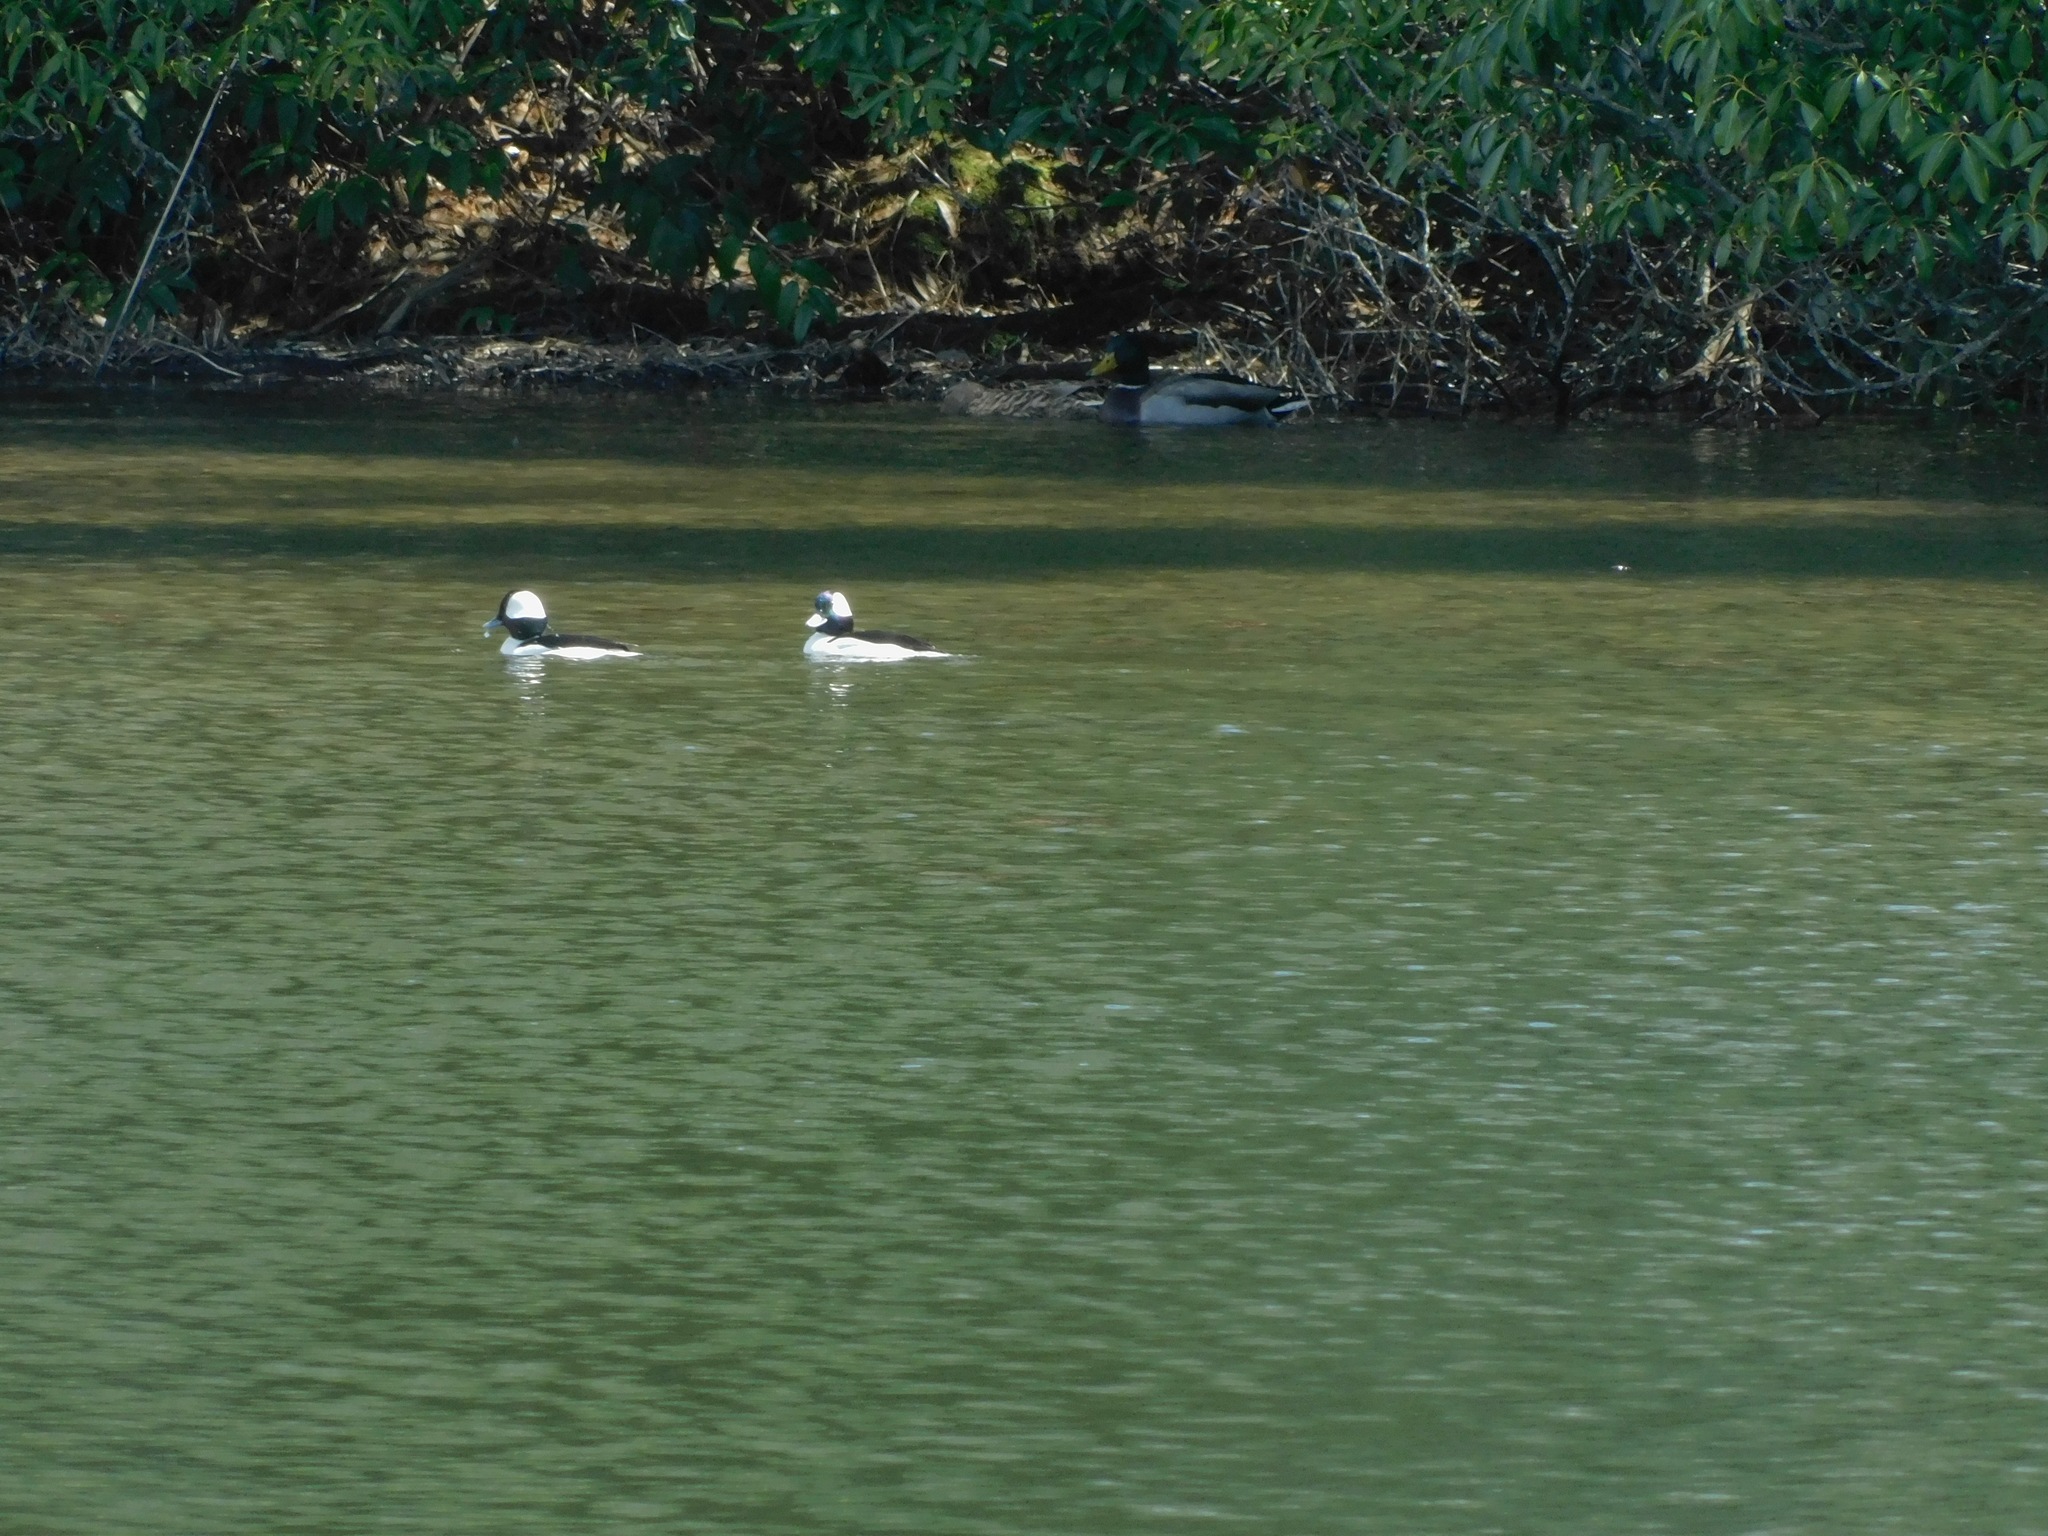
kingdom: Animalia
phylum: Chordata
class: Aves
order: Anseriformes
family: Anatidae
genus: Bucephala
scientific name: Bucephala albeola
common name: Bufflehead
